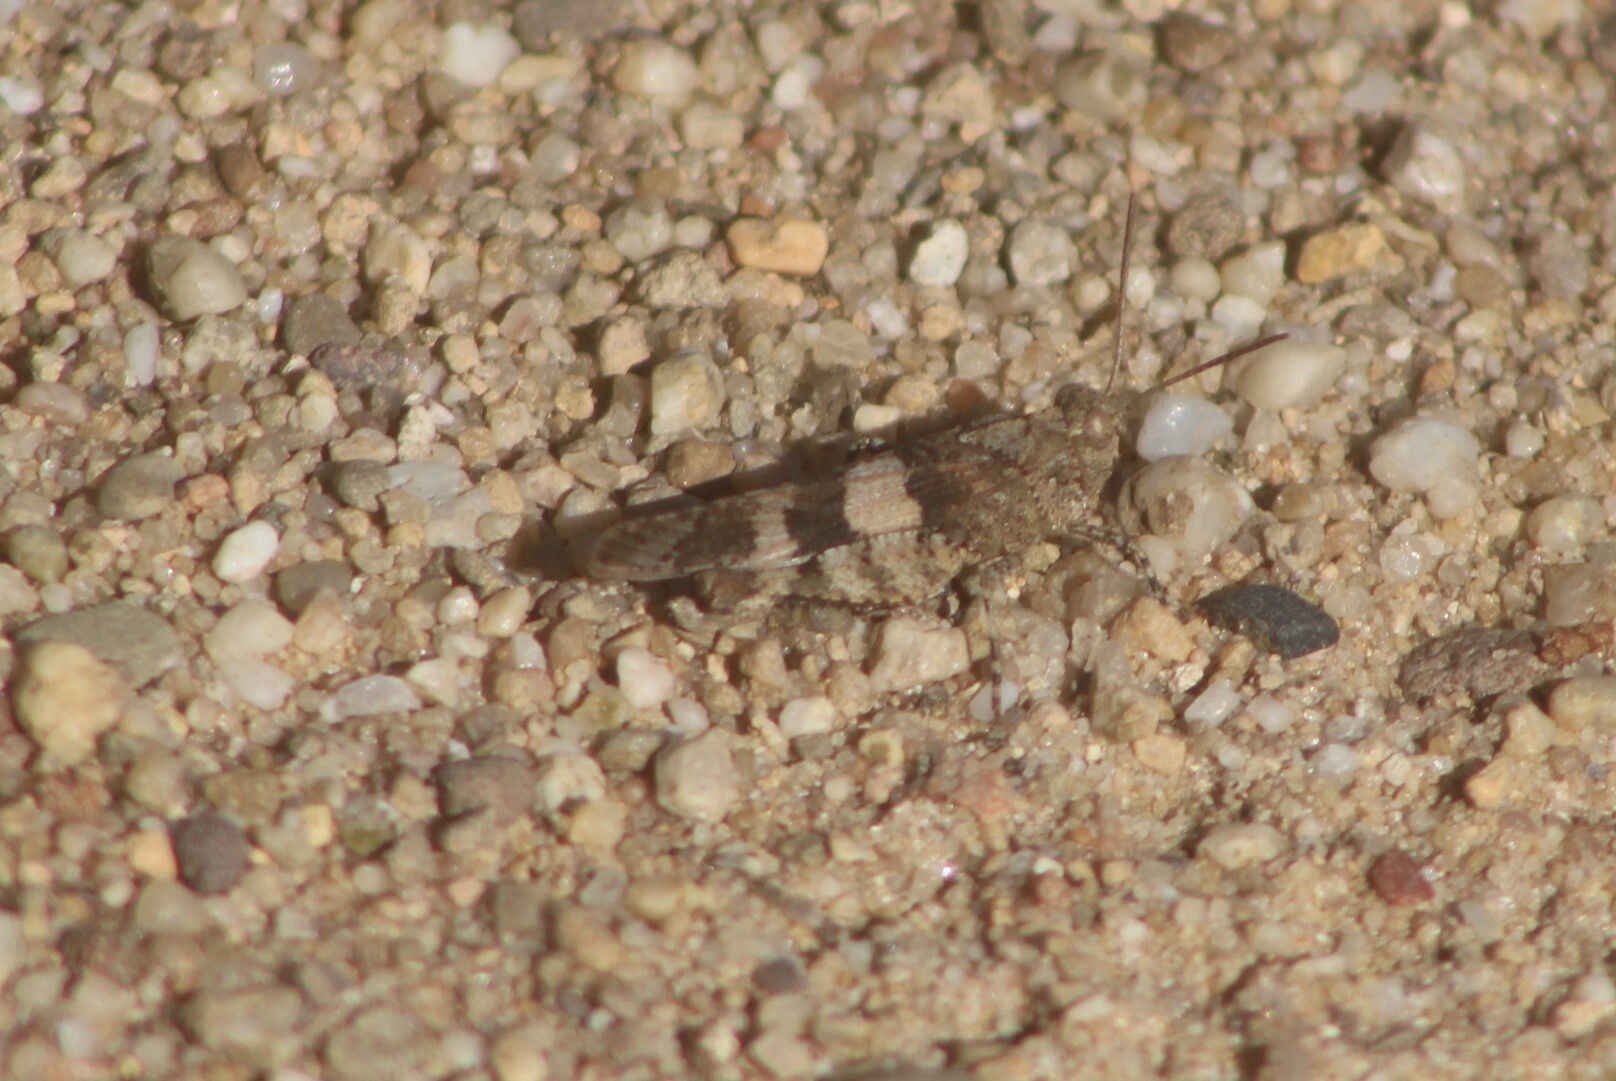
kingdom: Animalia
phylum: Arthropoda
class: Insecta
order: Orthoptera
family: Acrididae
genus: Oedipoda
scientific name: Oedipoda caerulescens
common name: Blue-winged grasshopper
